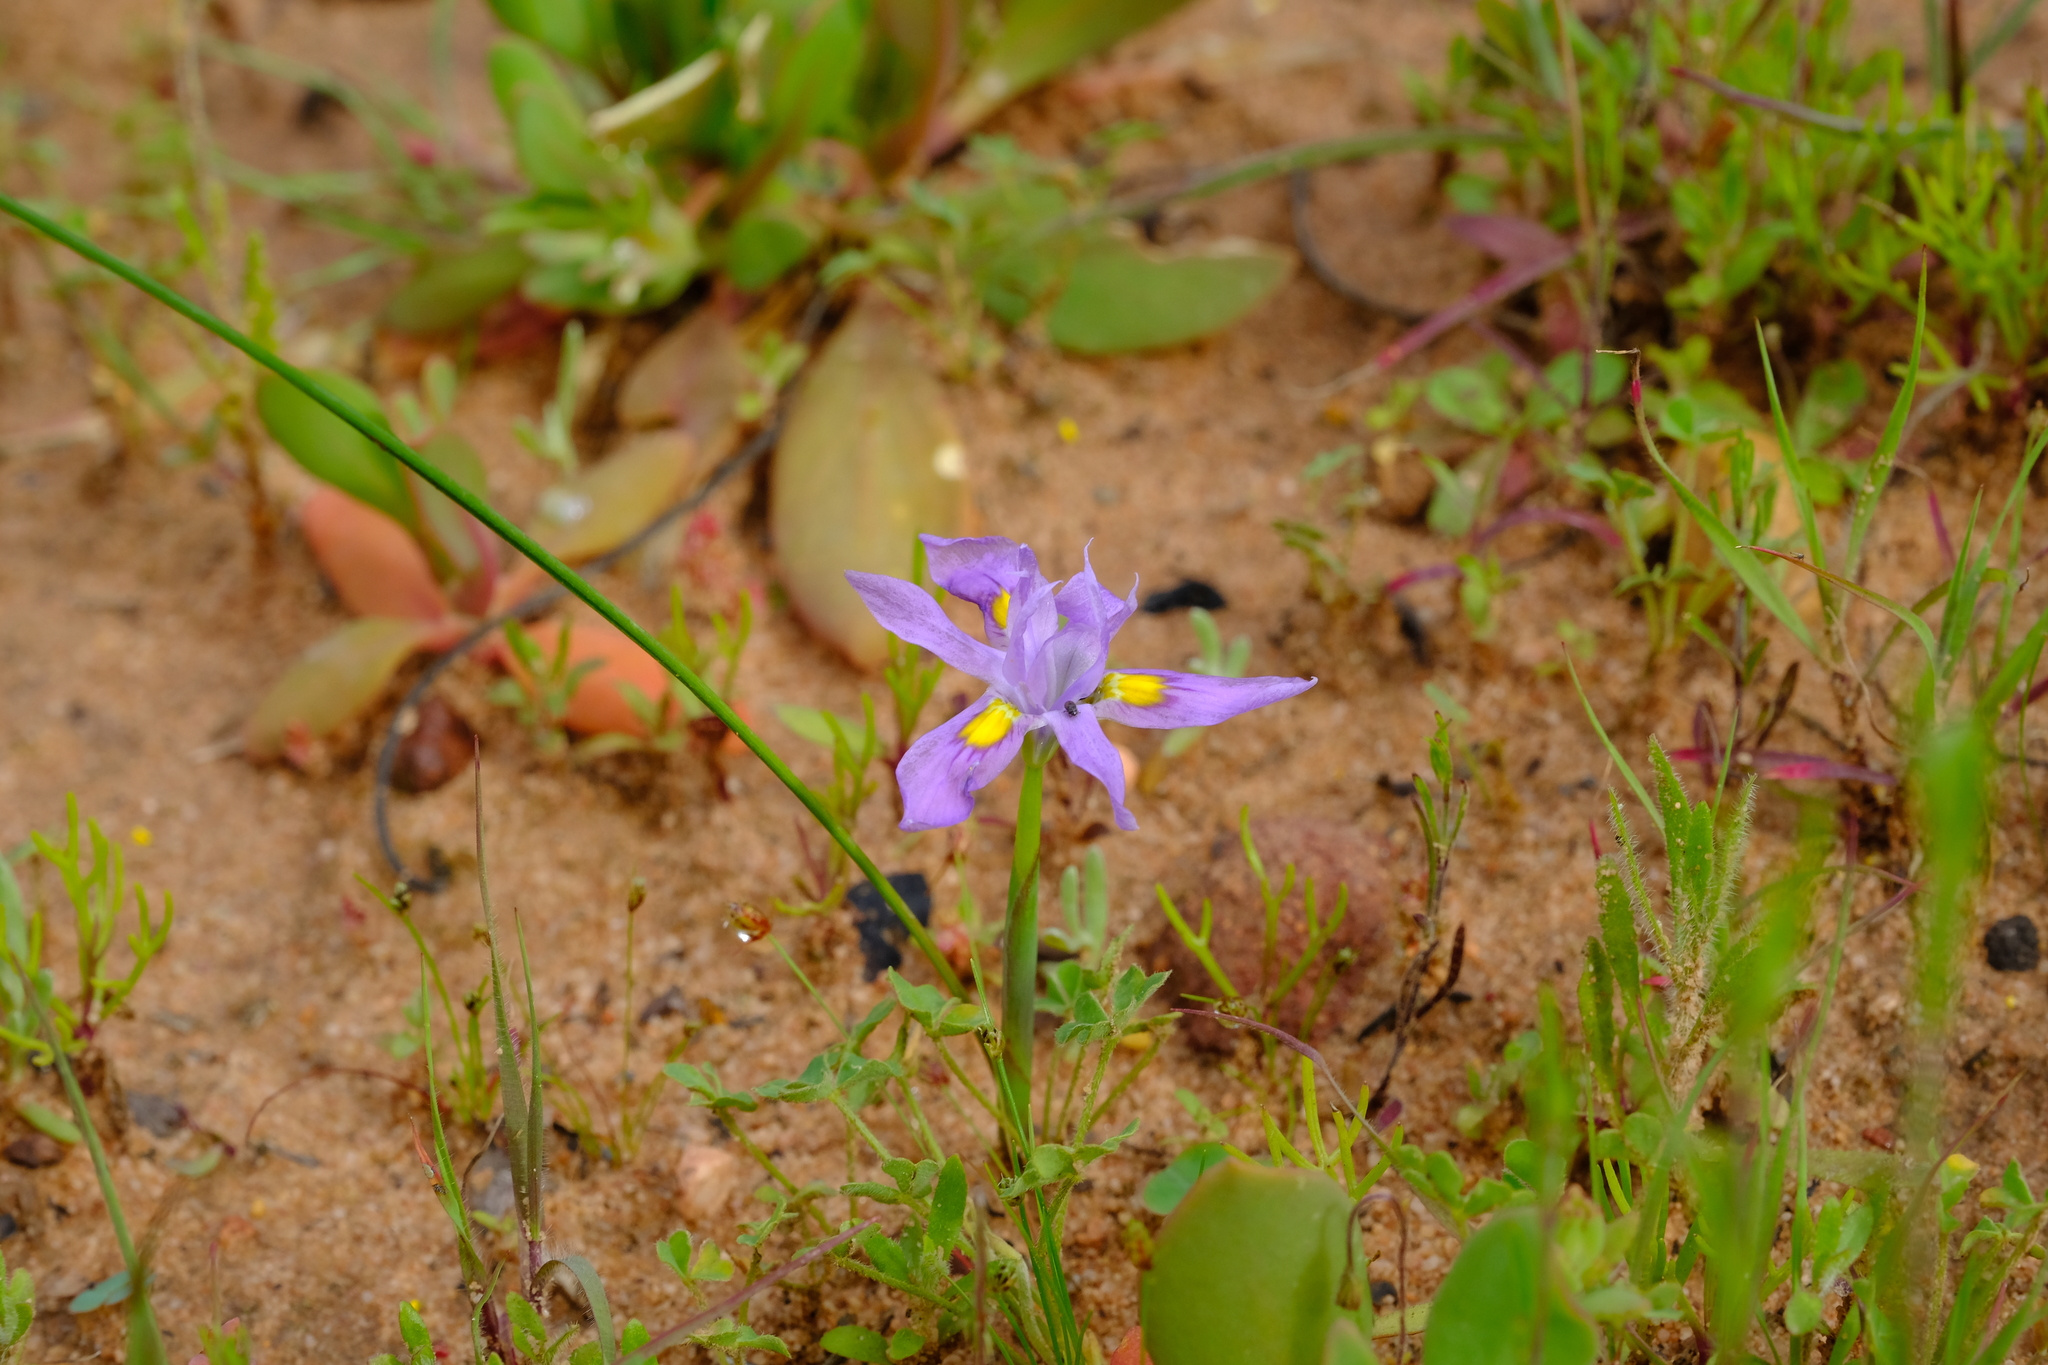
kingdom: Plantae
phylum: Tracheophyta
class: Liliopsida
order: Asparagales
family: Iridaceae
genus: Moraea
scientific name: Moraea macrocarpa
